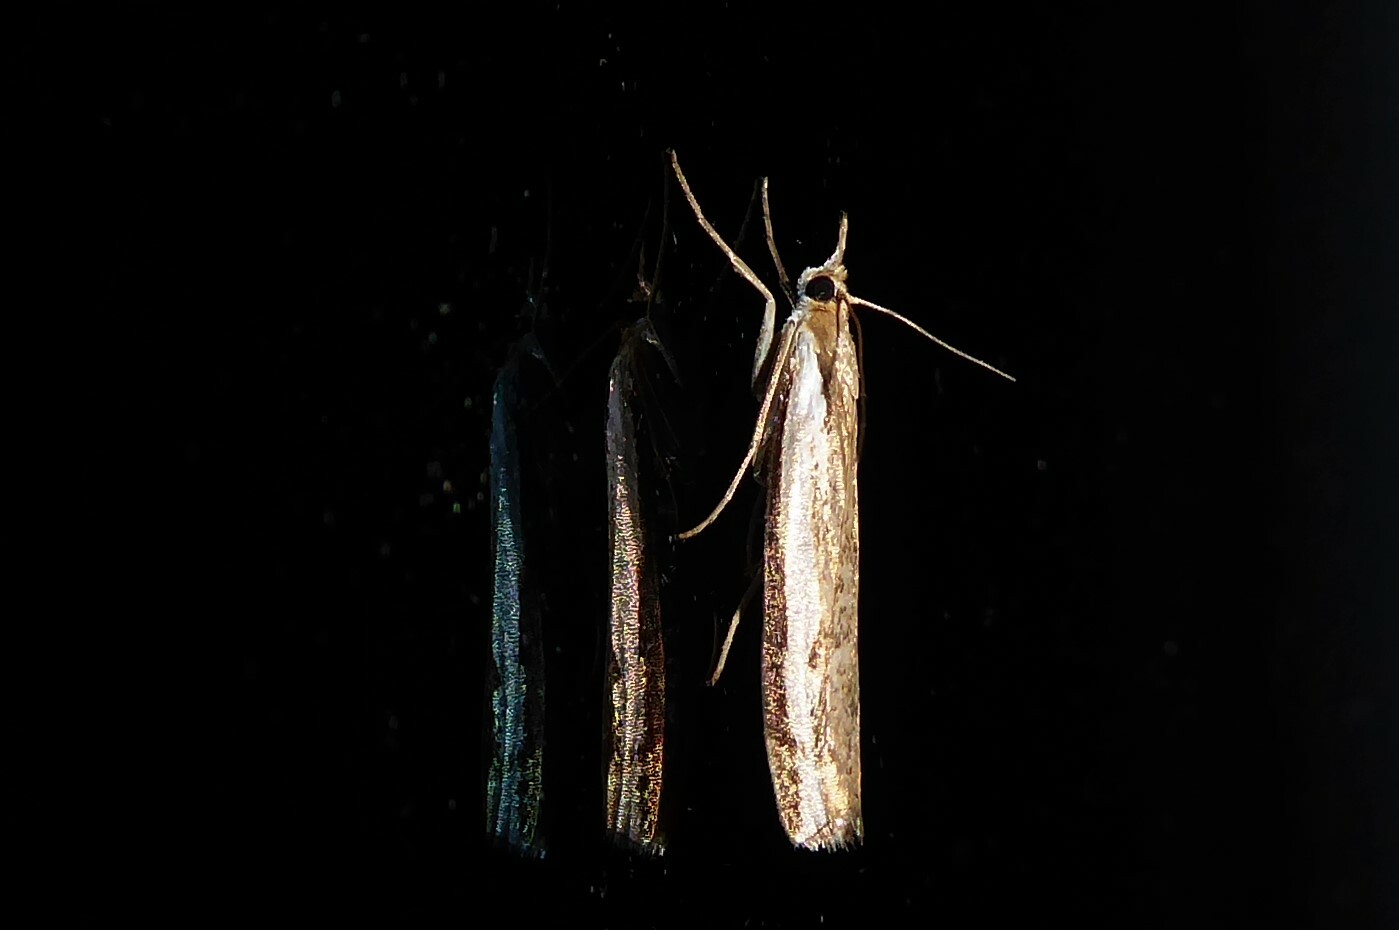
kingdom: Animalia
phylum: Arthropoda
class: Insecta
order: Lepidoptera
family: Crambidae
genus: Orocrambus
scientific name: Orocrambus flexuosellus
